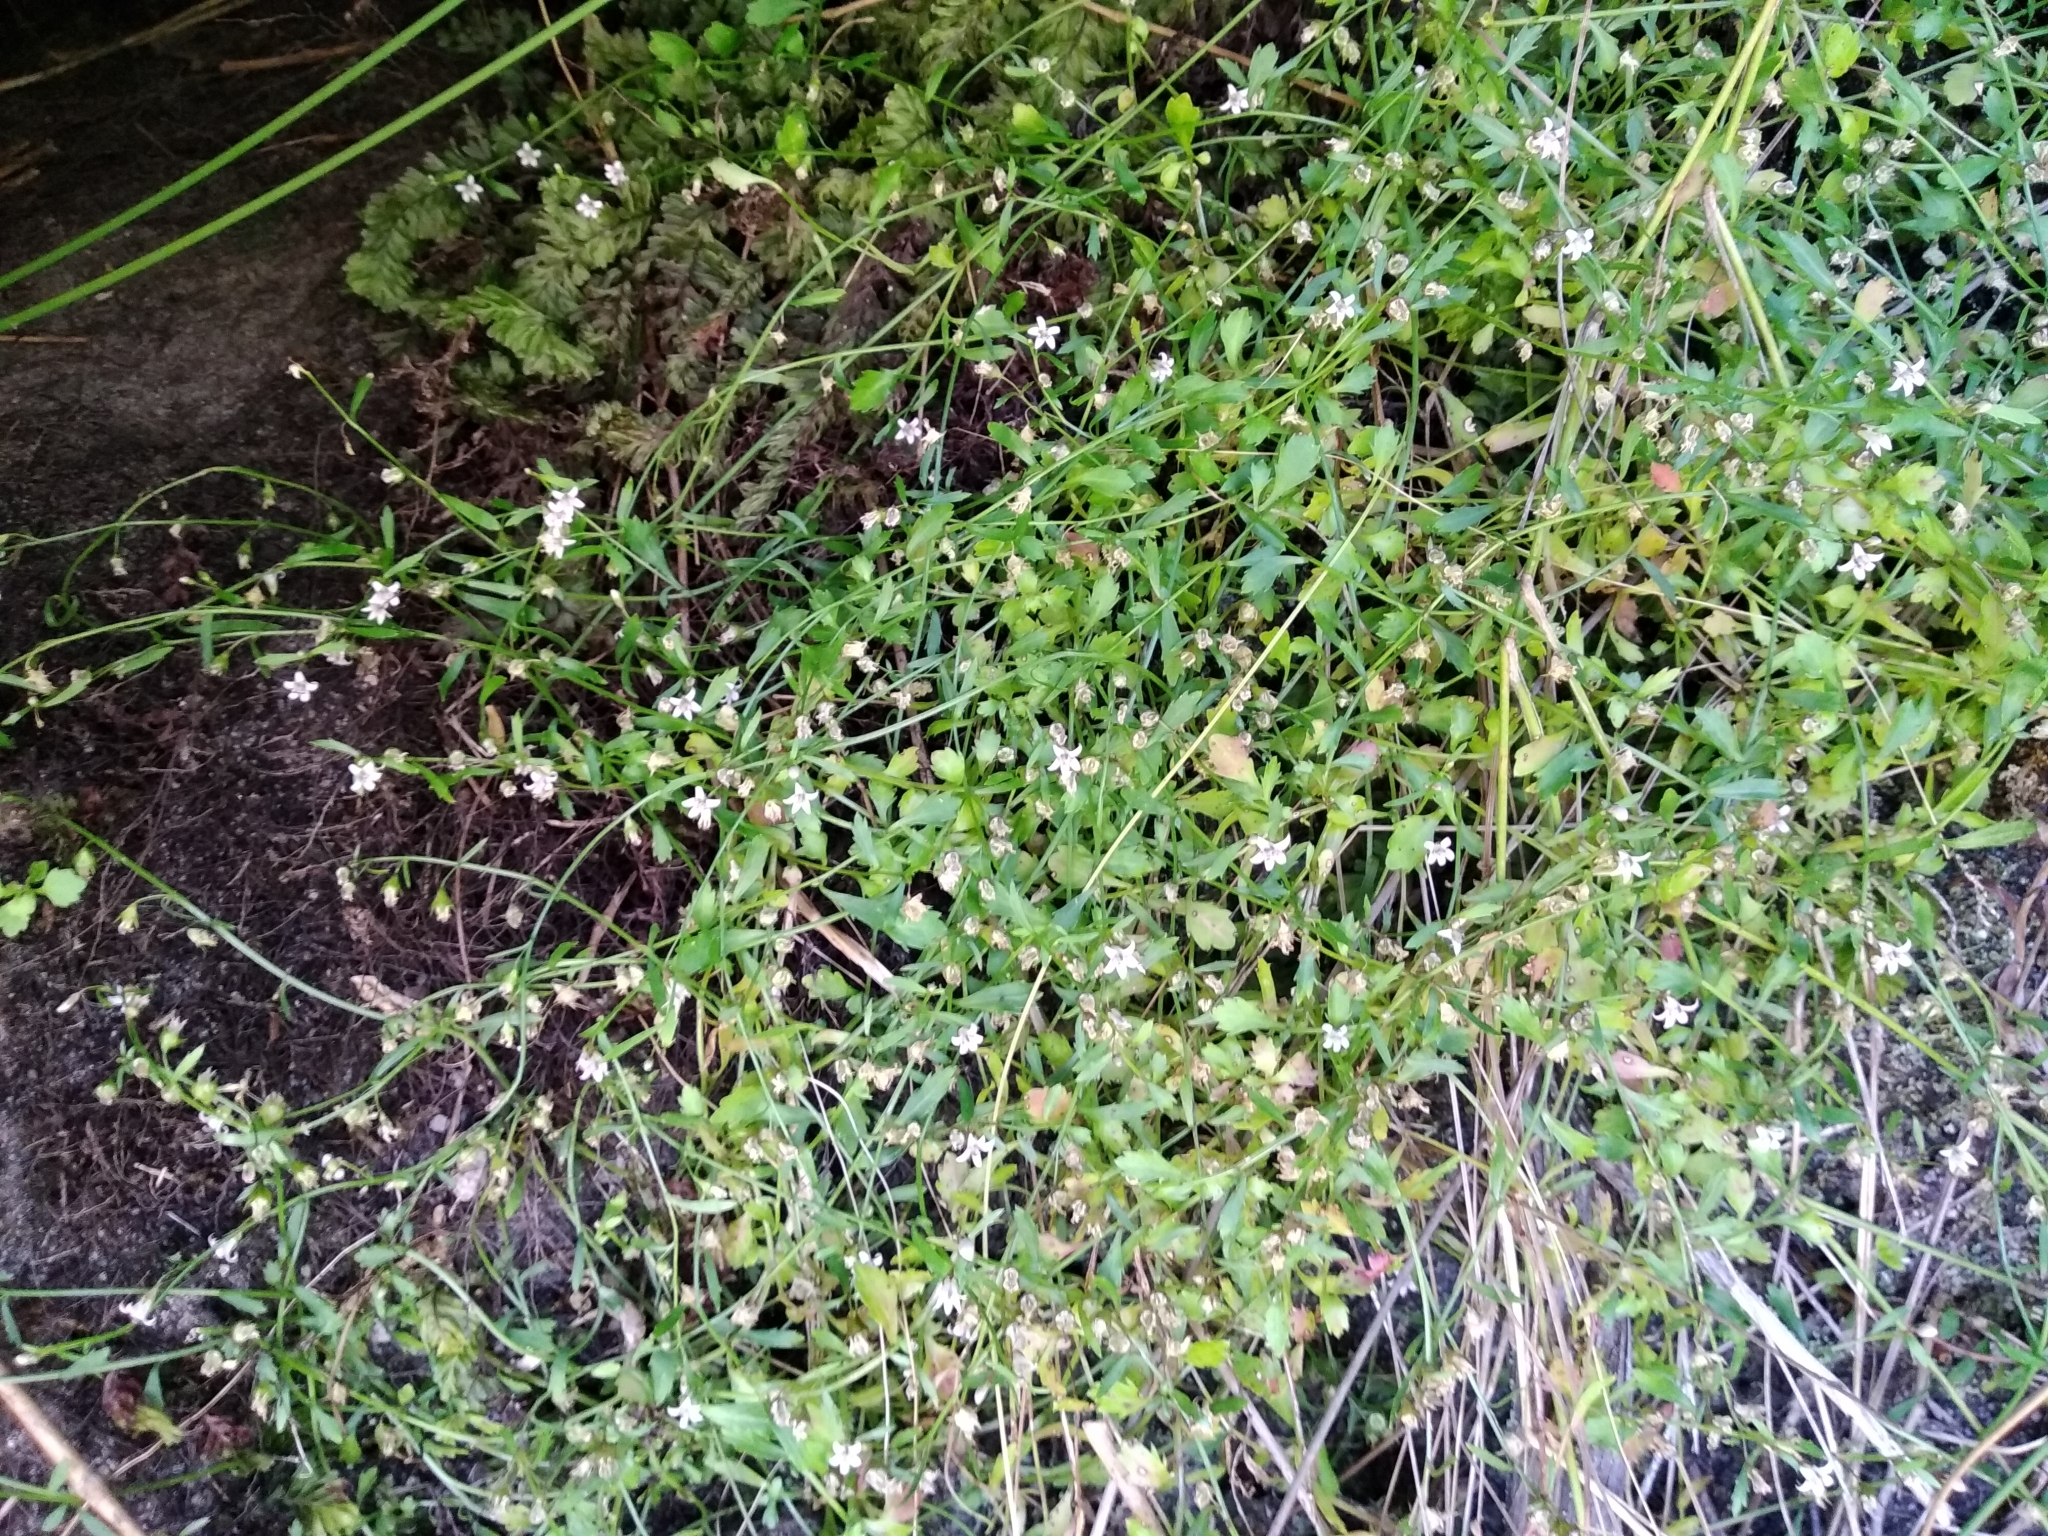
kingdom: Plantae
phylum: Tracheophyta
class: Magnoliopsida
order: Asterales
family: Campanulaceae
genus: Lobelia
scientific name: Lobelia eckloniana
